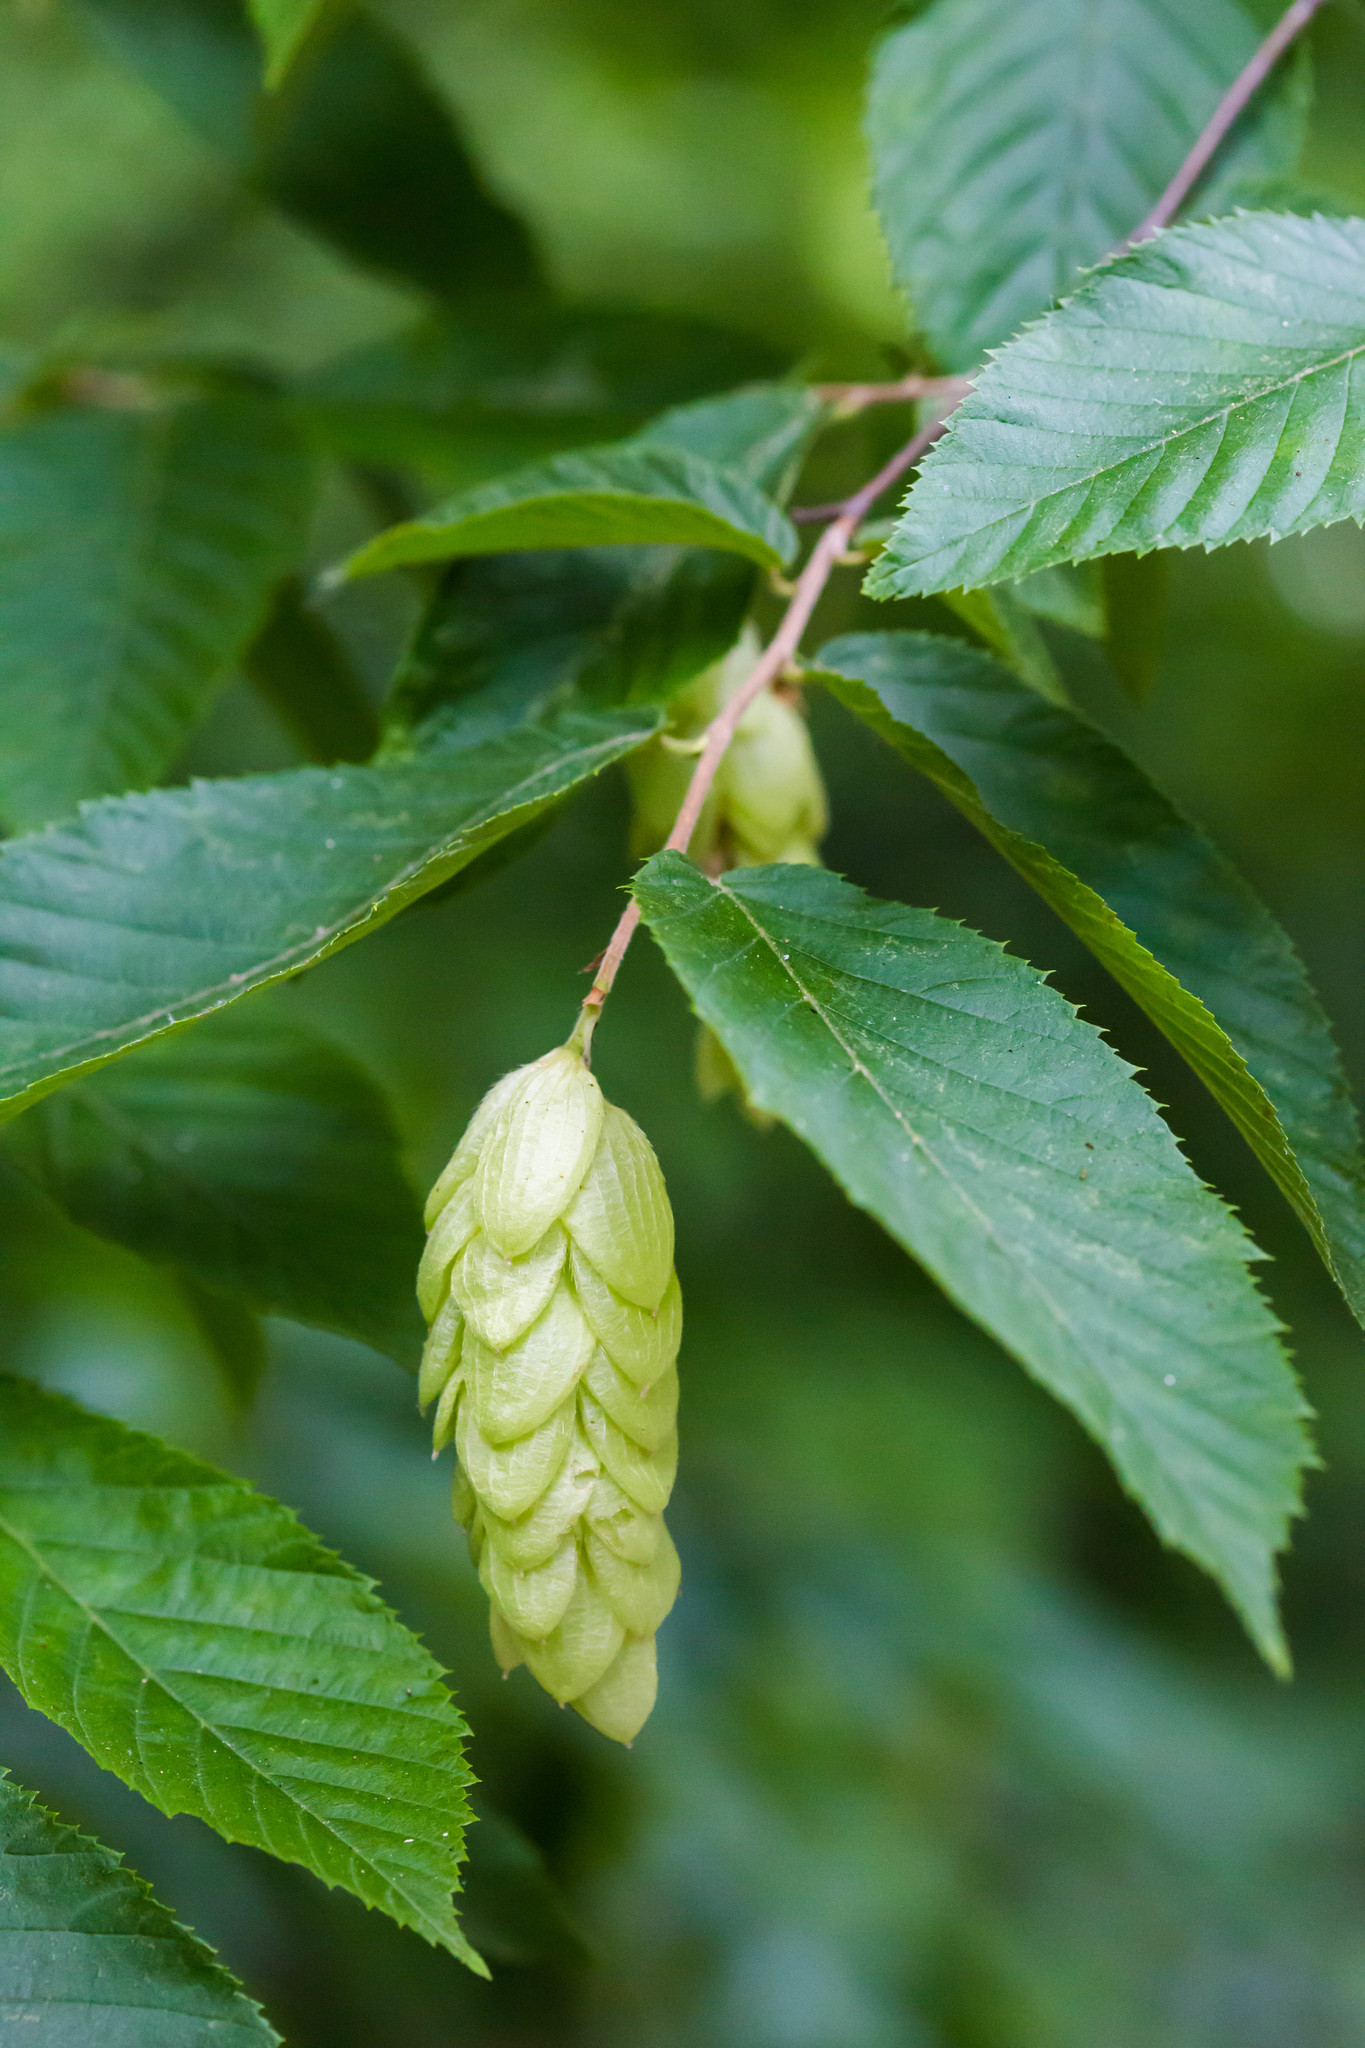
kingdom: Plantae
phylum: Tracheophyta
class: Magnoliopsida
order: Fagales
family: Betulaceae
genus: Ostrya
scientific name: Ostrya virginiana
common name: Ironwood
